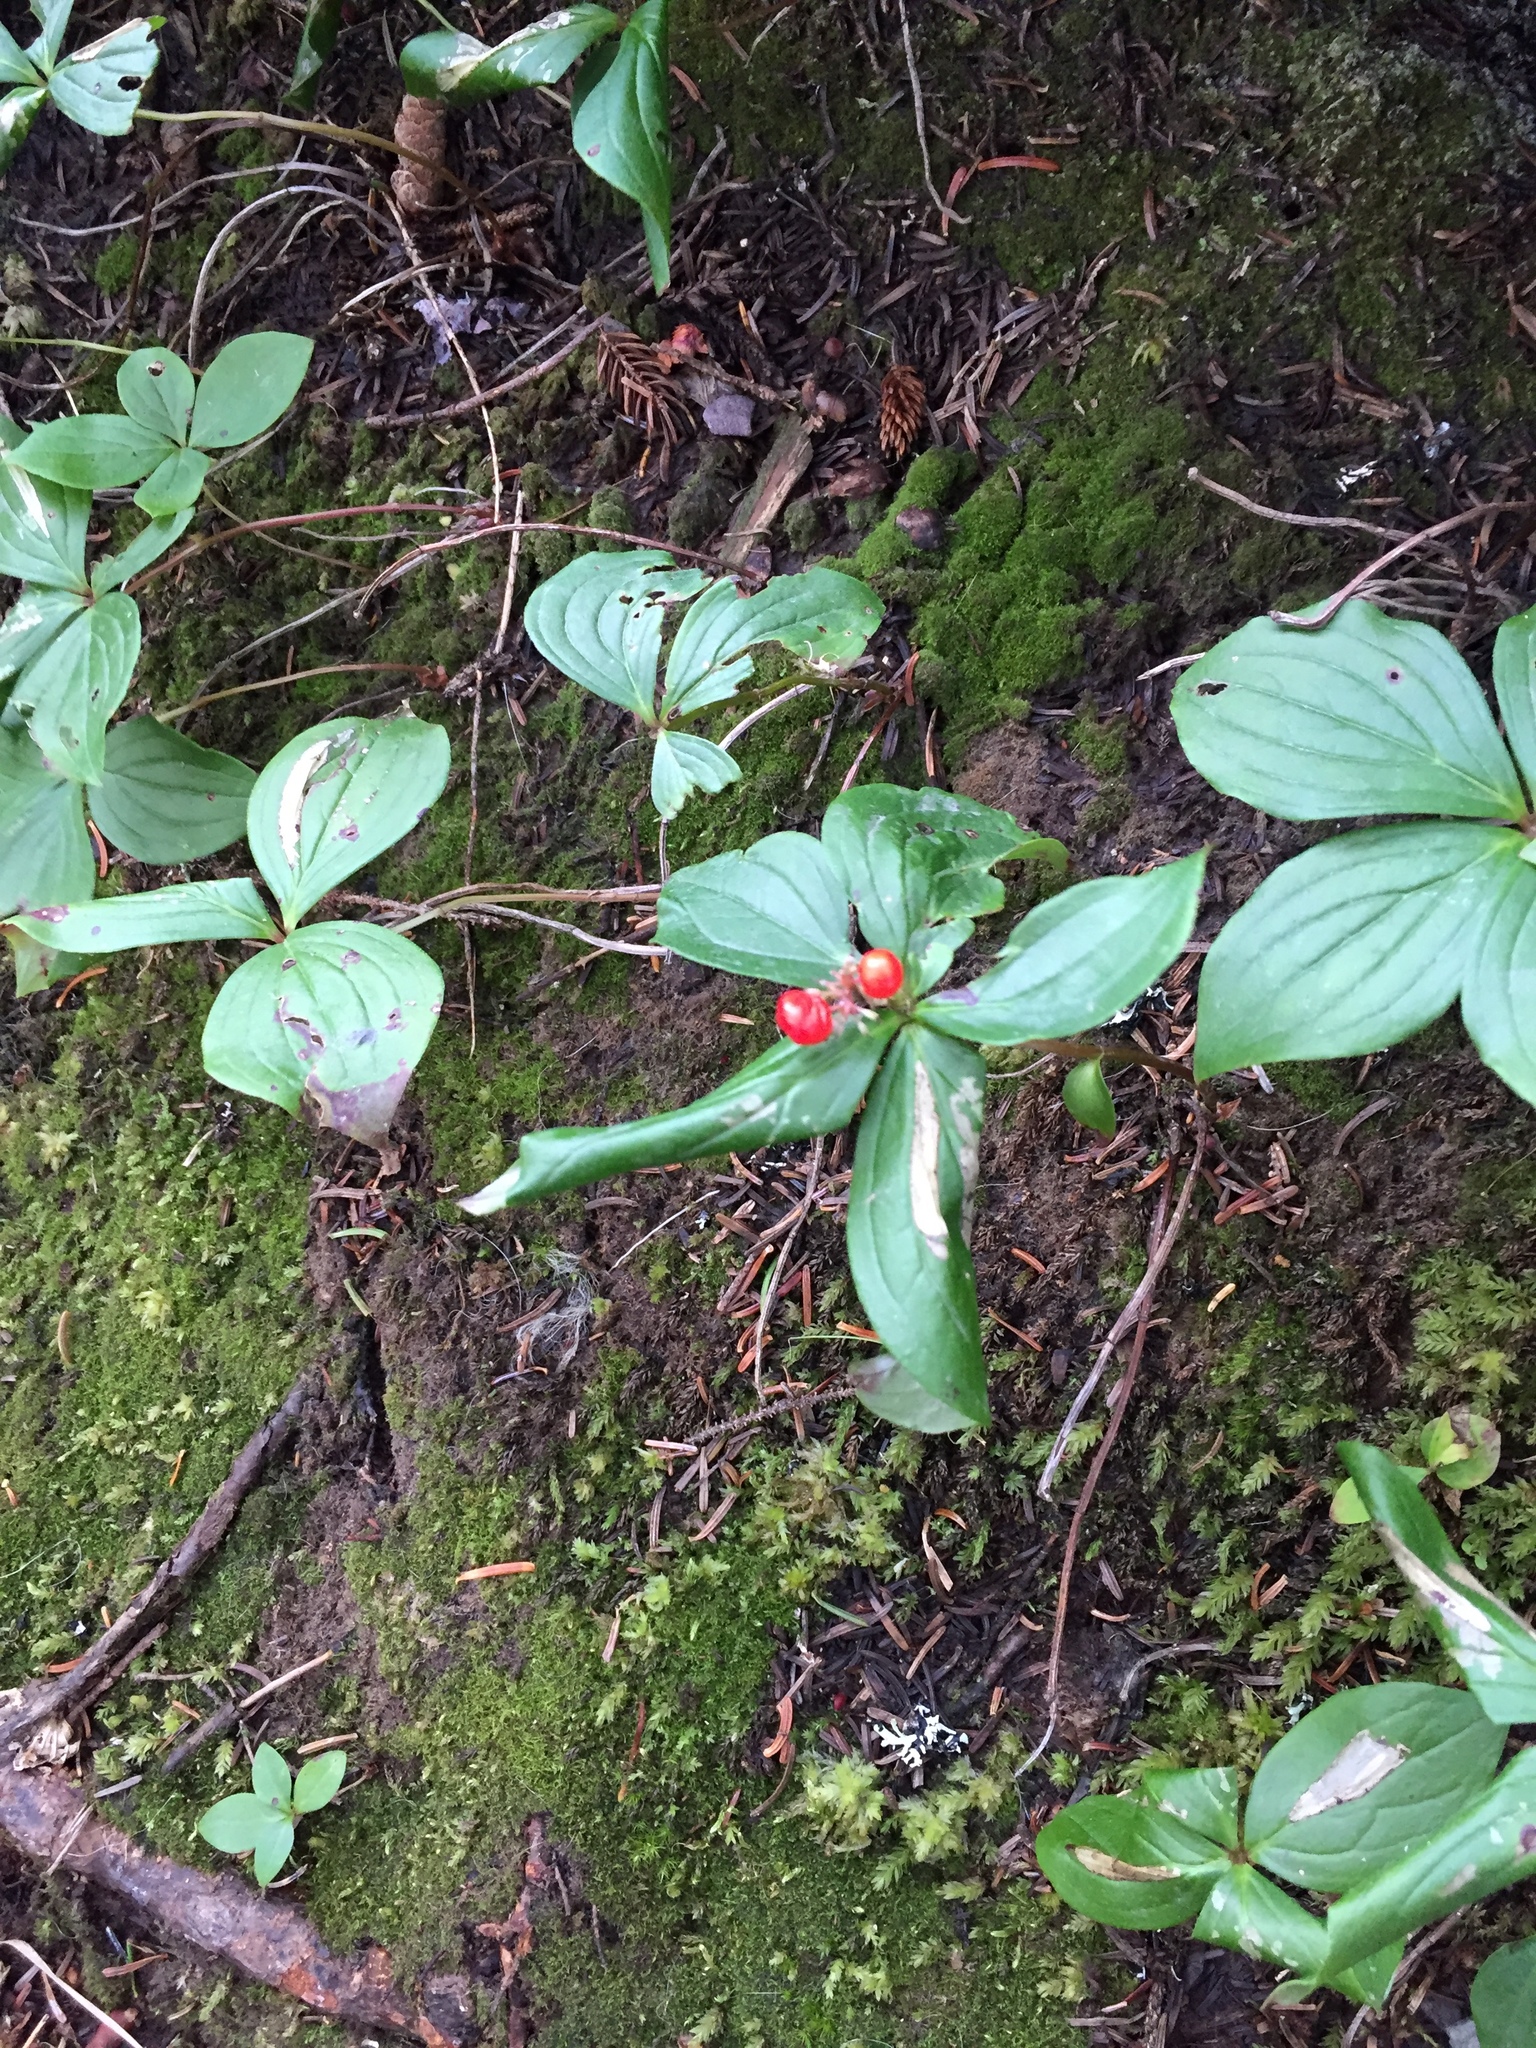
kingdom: Plantae
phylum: Tracheophyta
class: Magnoliopsida
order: Cornales
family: Cornaceae
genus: Cornus
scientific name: Cornus canadensis
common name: Creeping dogwood
